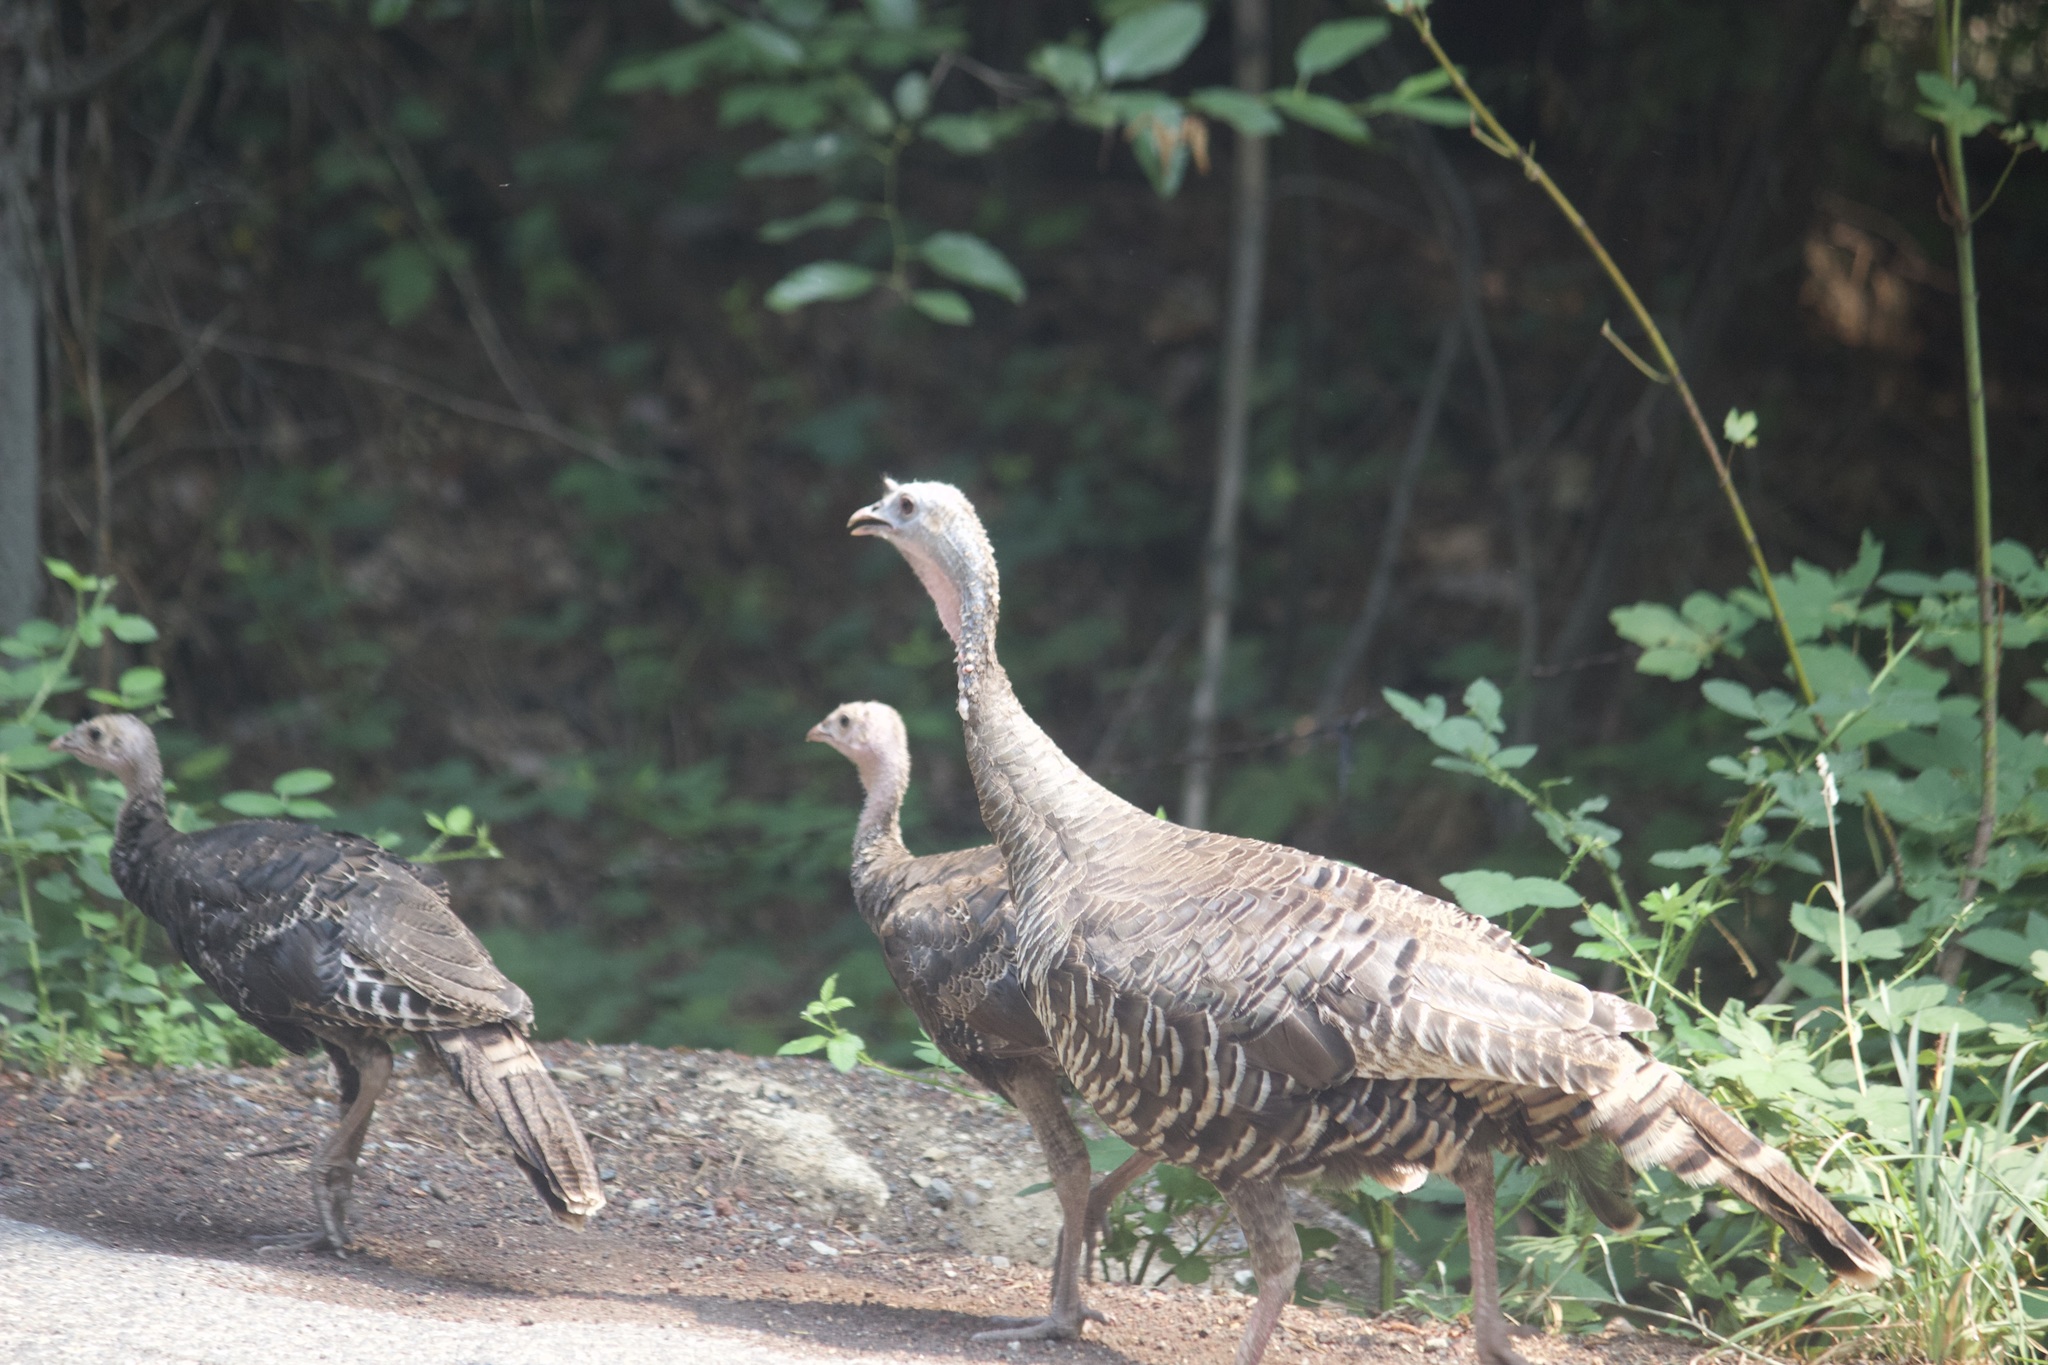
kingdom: Animalia
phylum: Chordata
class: Aves
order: Galliformes
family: Phasianidae
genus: Meleagris
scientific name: Meleagris gallopavo
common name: Wild turkey
